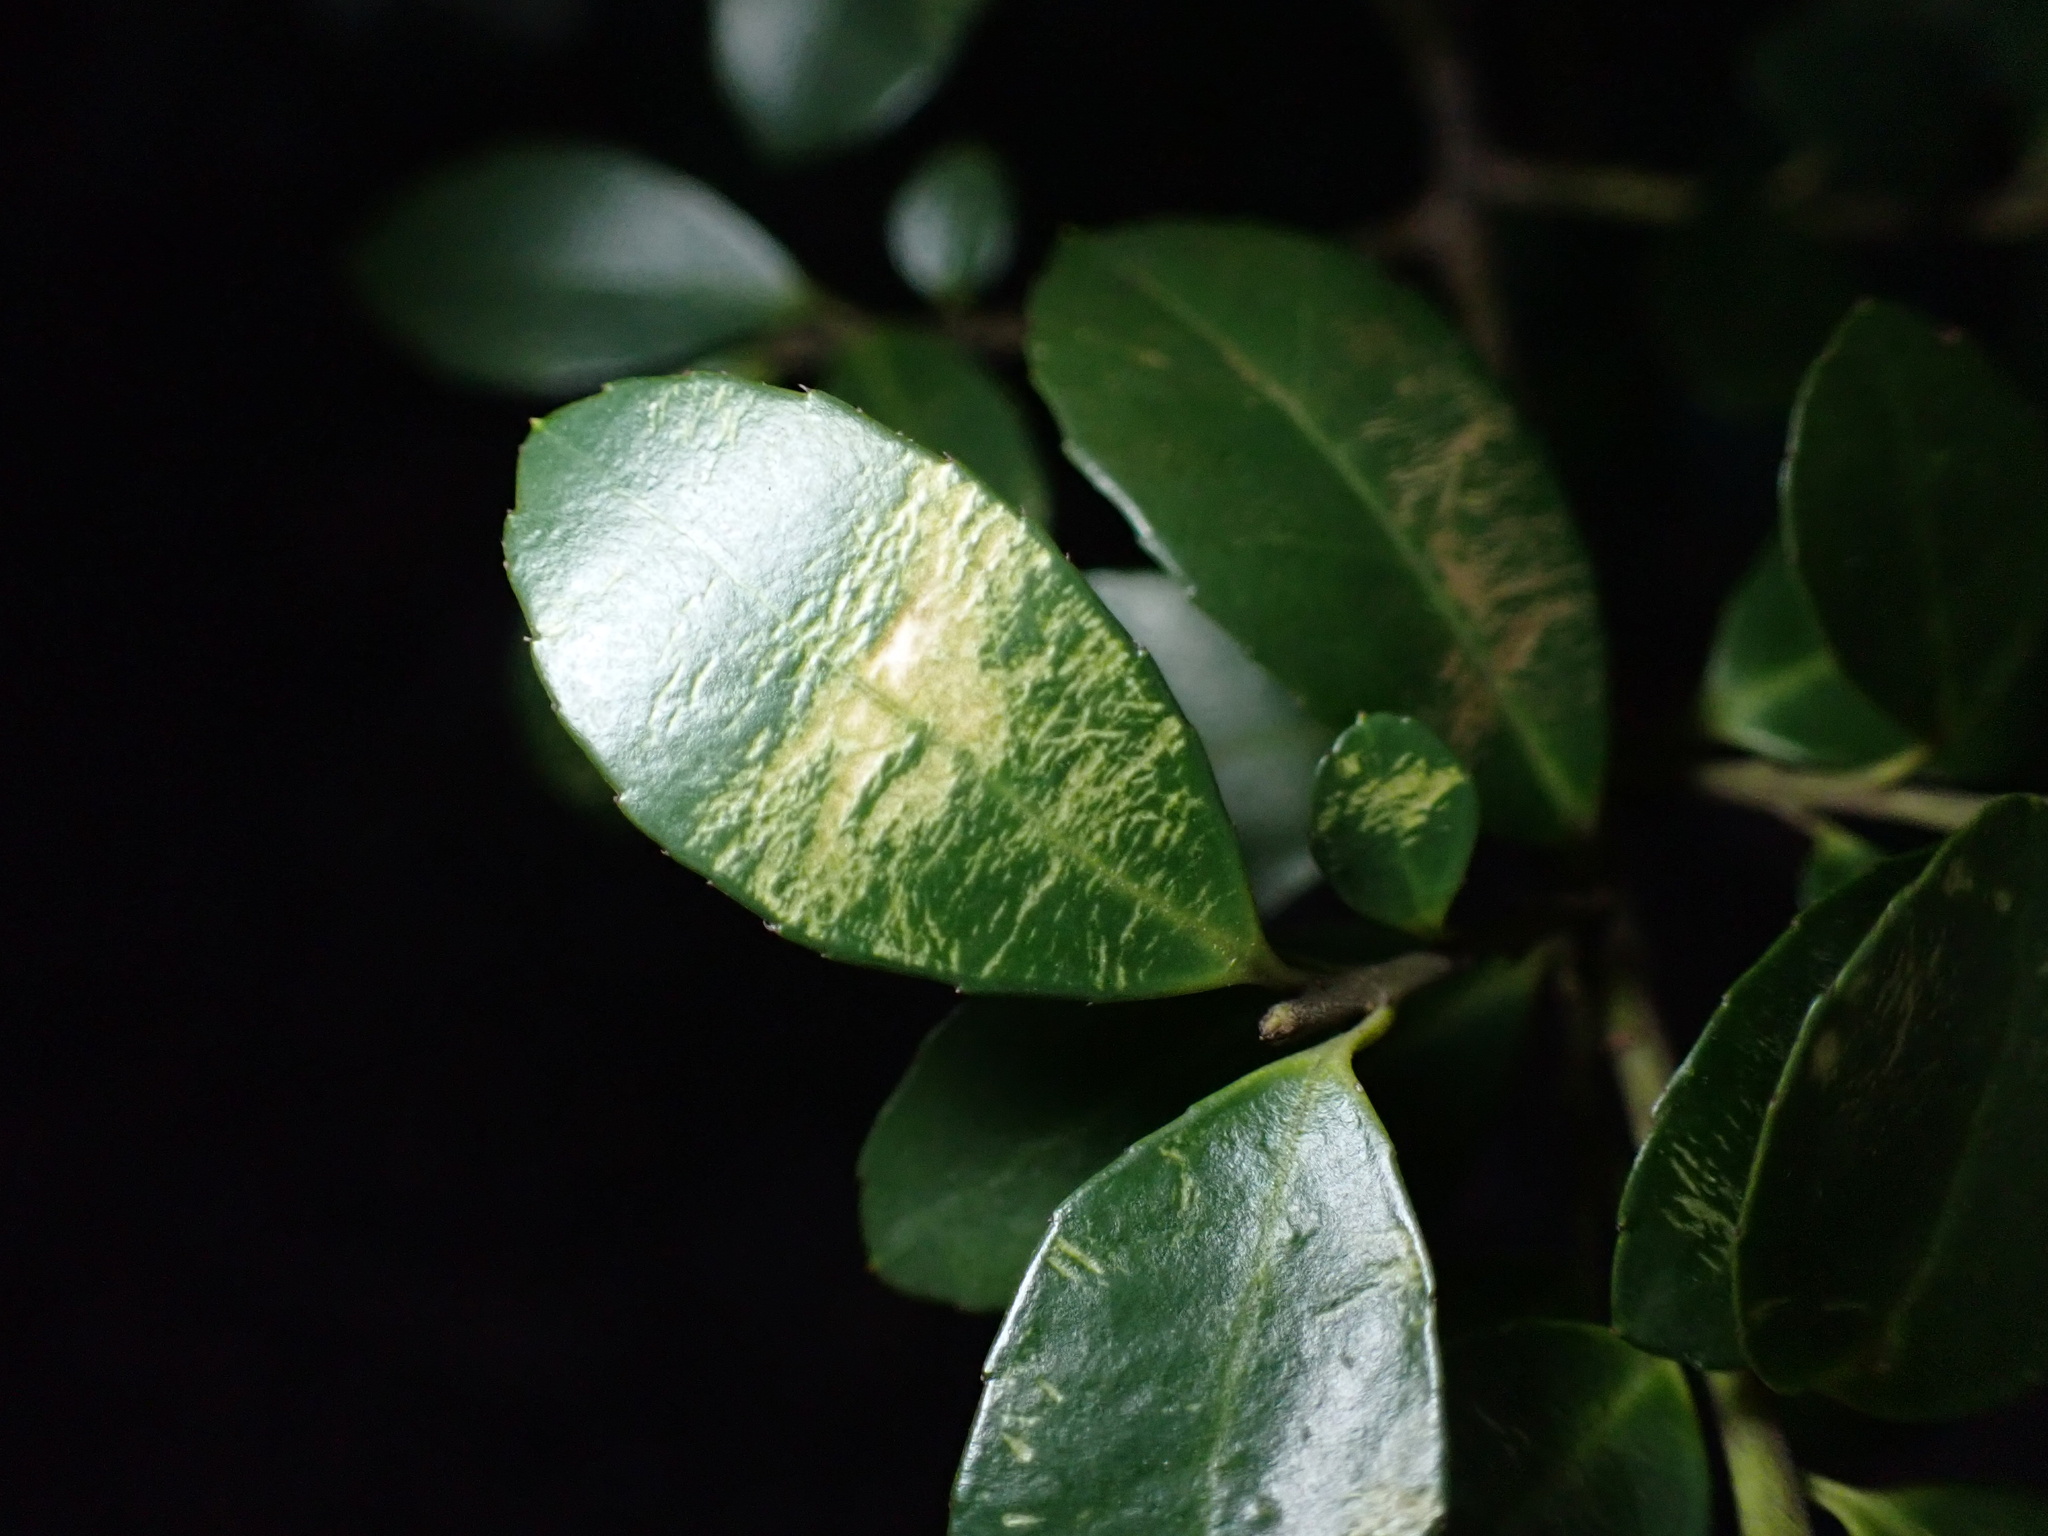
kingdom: Plantae
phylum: Tracheophyta
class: Magnoliopsida
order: Aquifoliales
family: Aquifoliaceae
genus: Ilex
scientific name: Ilex crenata
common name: Japanese holly
